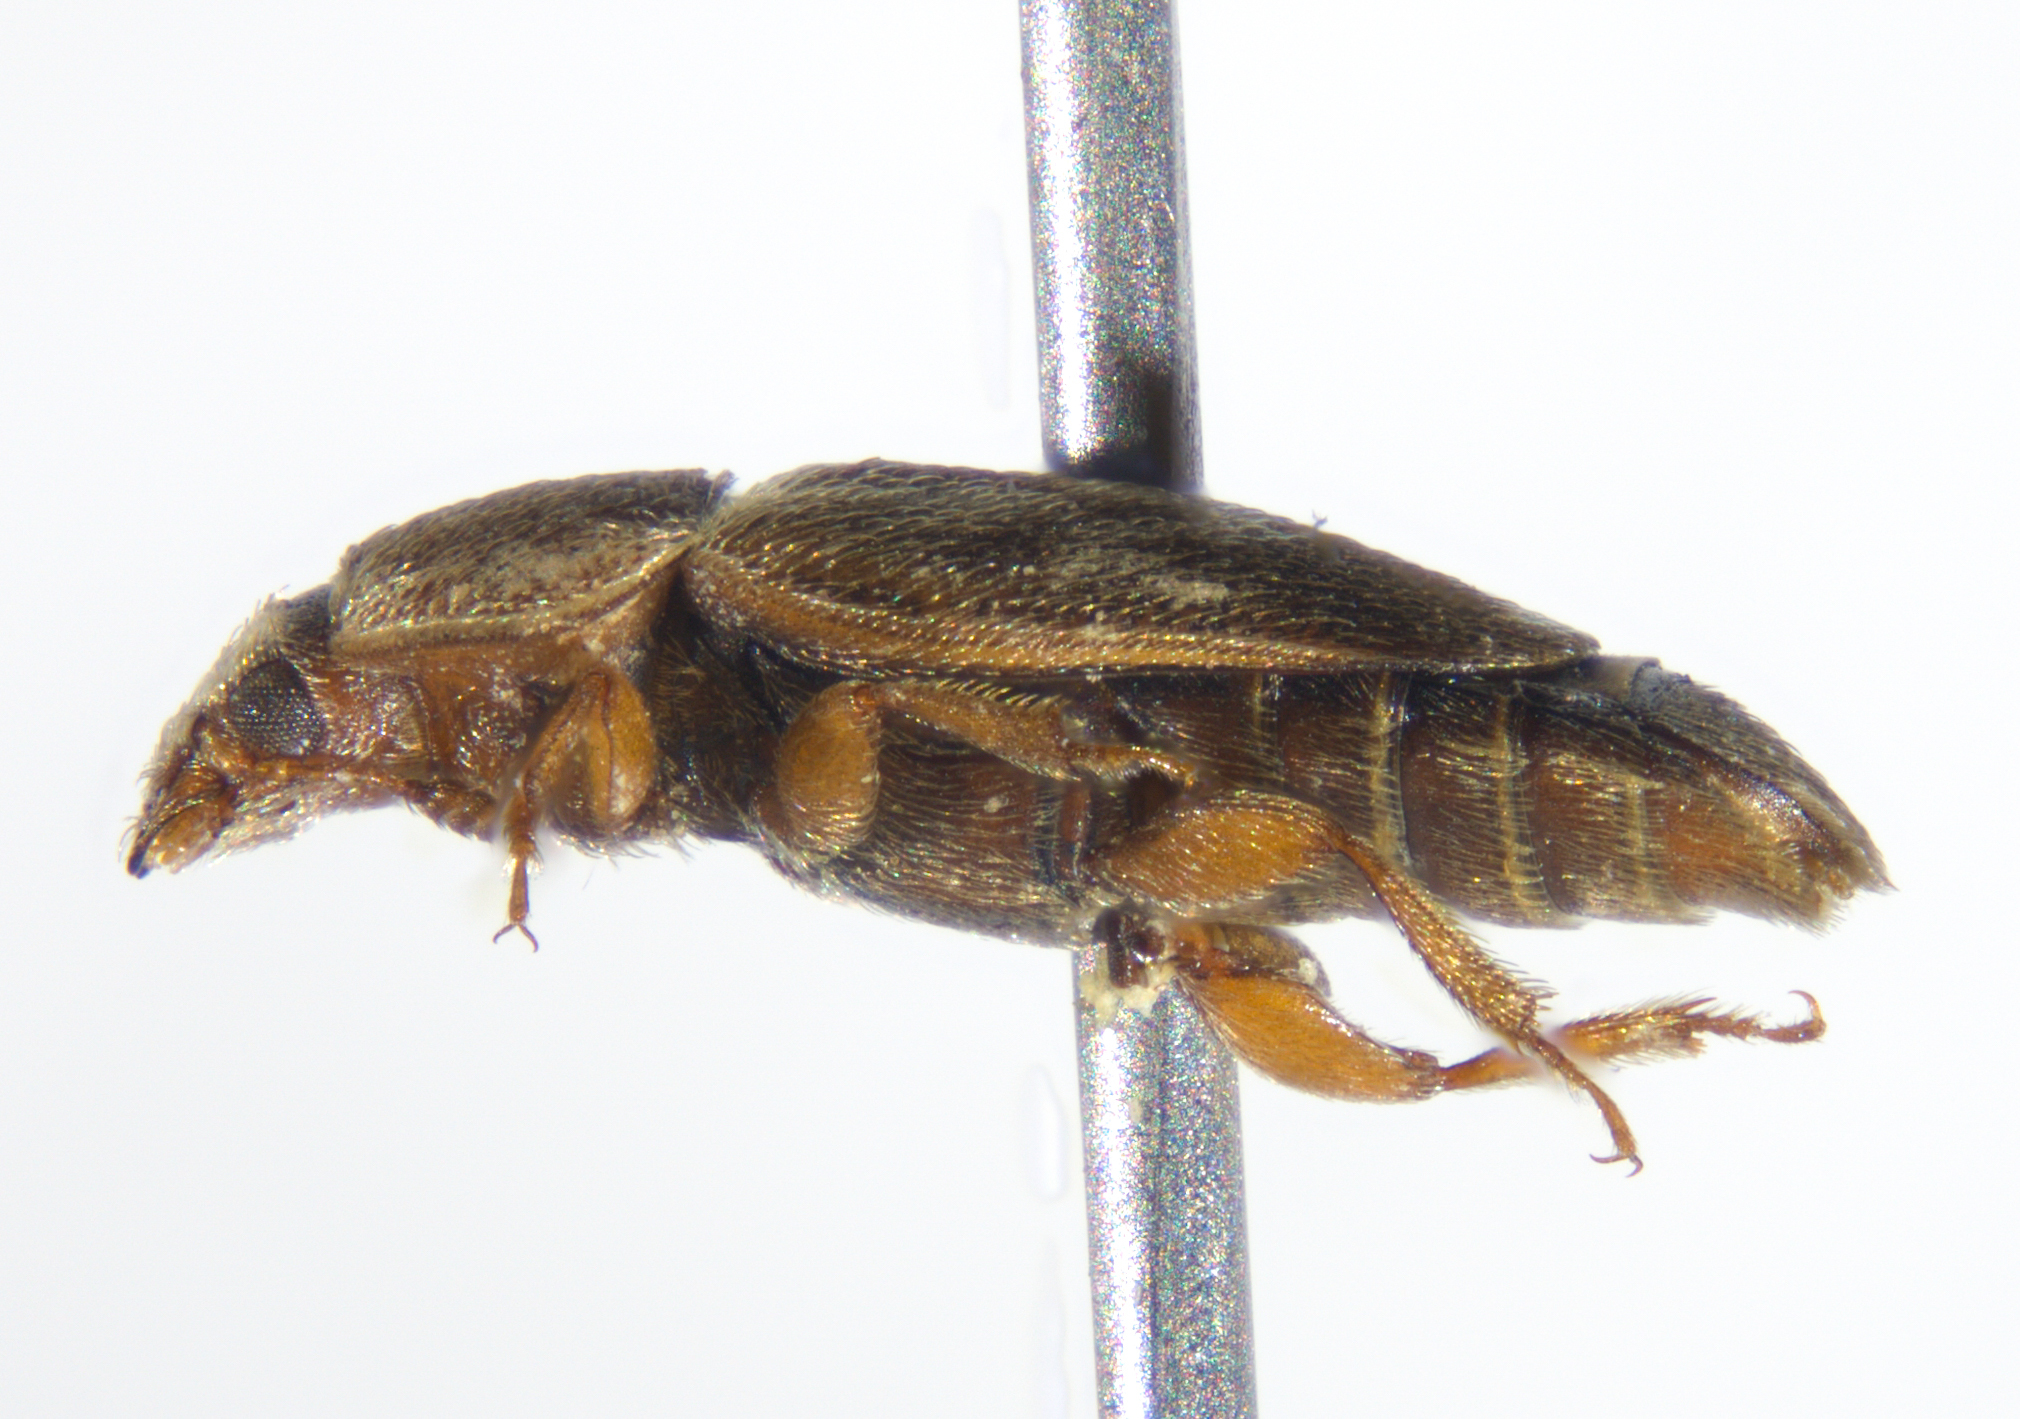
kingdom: Animalia
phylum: Arthropoda
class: Insecta
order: Coleoptera
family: Nitidulidae
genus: Nitidula
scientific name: Nitidula ziczac
